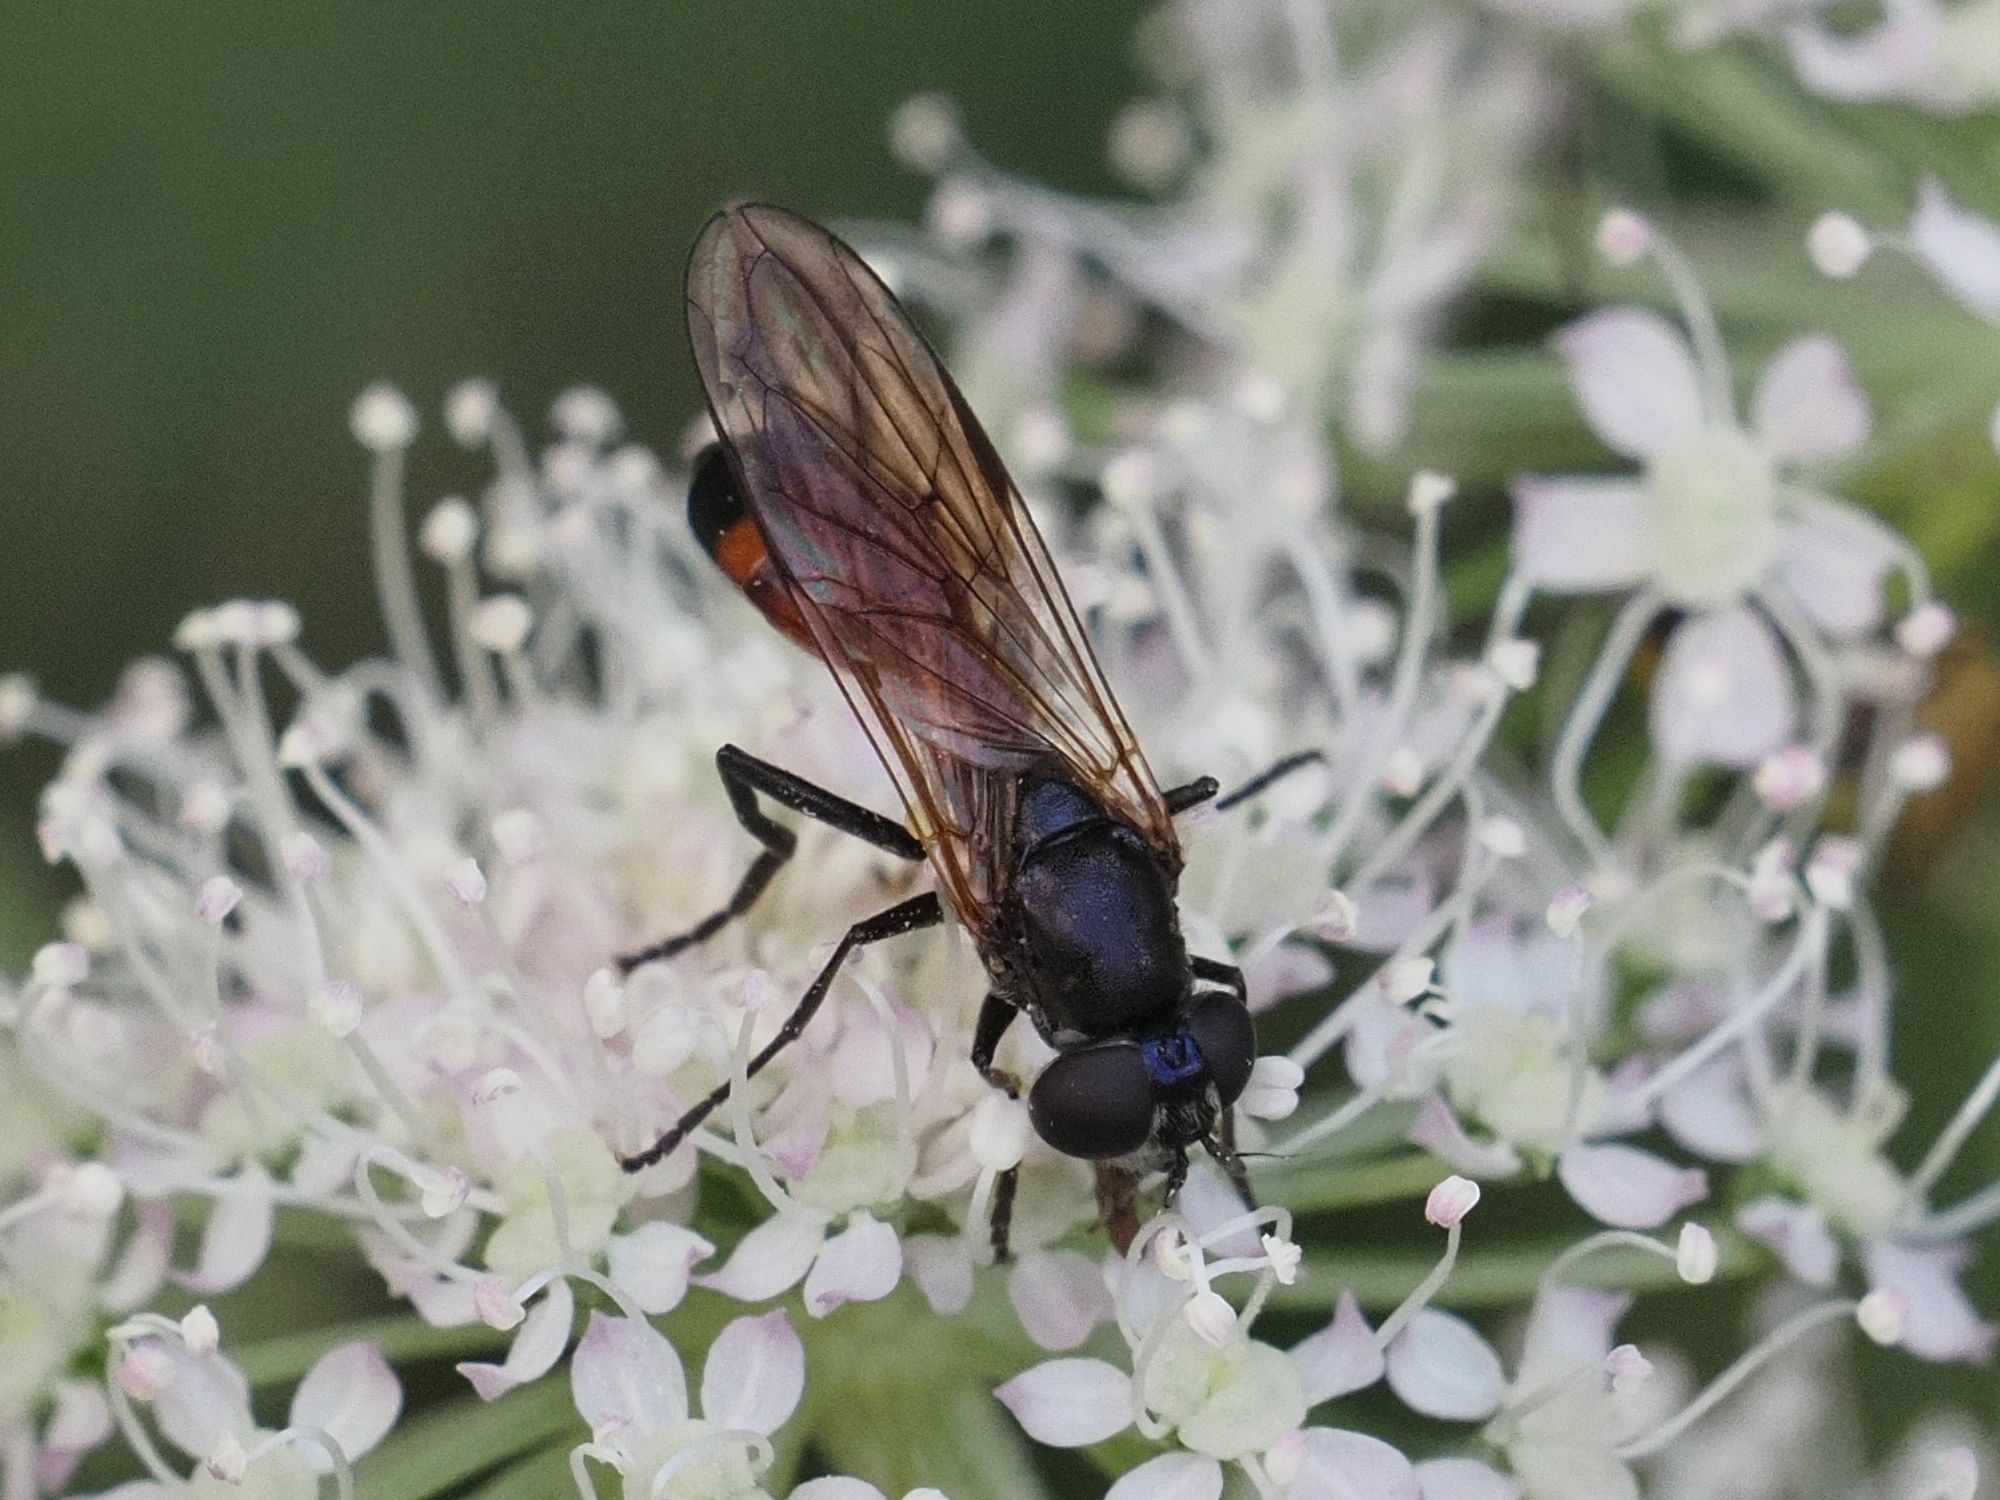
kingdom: Animalia
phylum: Arthropoda
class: Insecta
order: Diptera
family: Syrphidae
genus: Spazigaster
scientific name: Spazigaster ambulans
